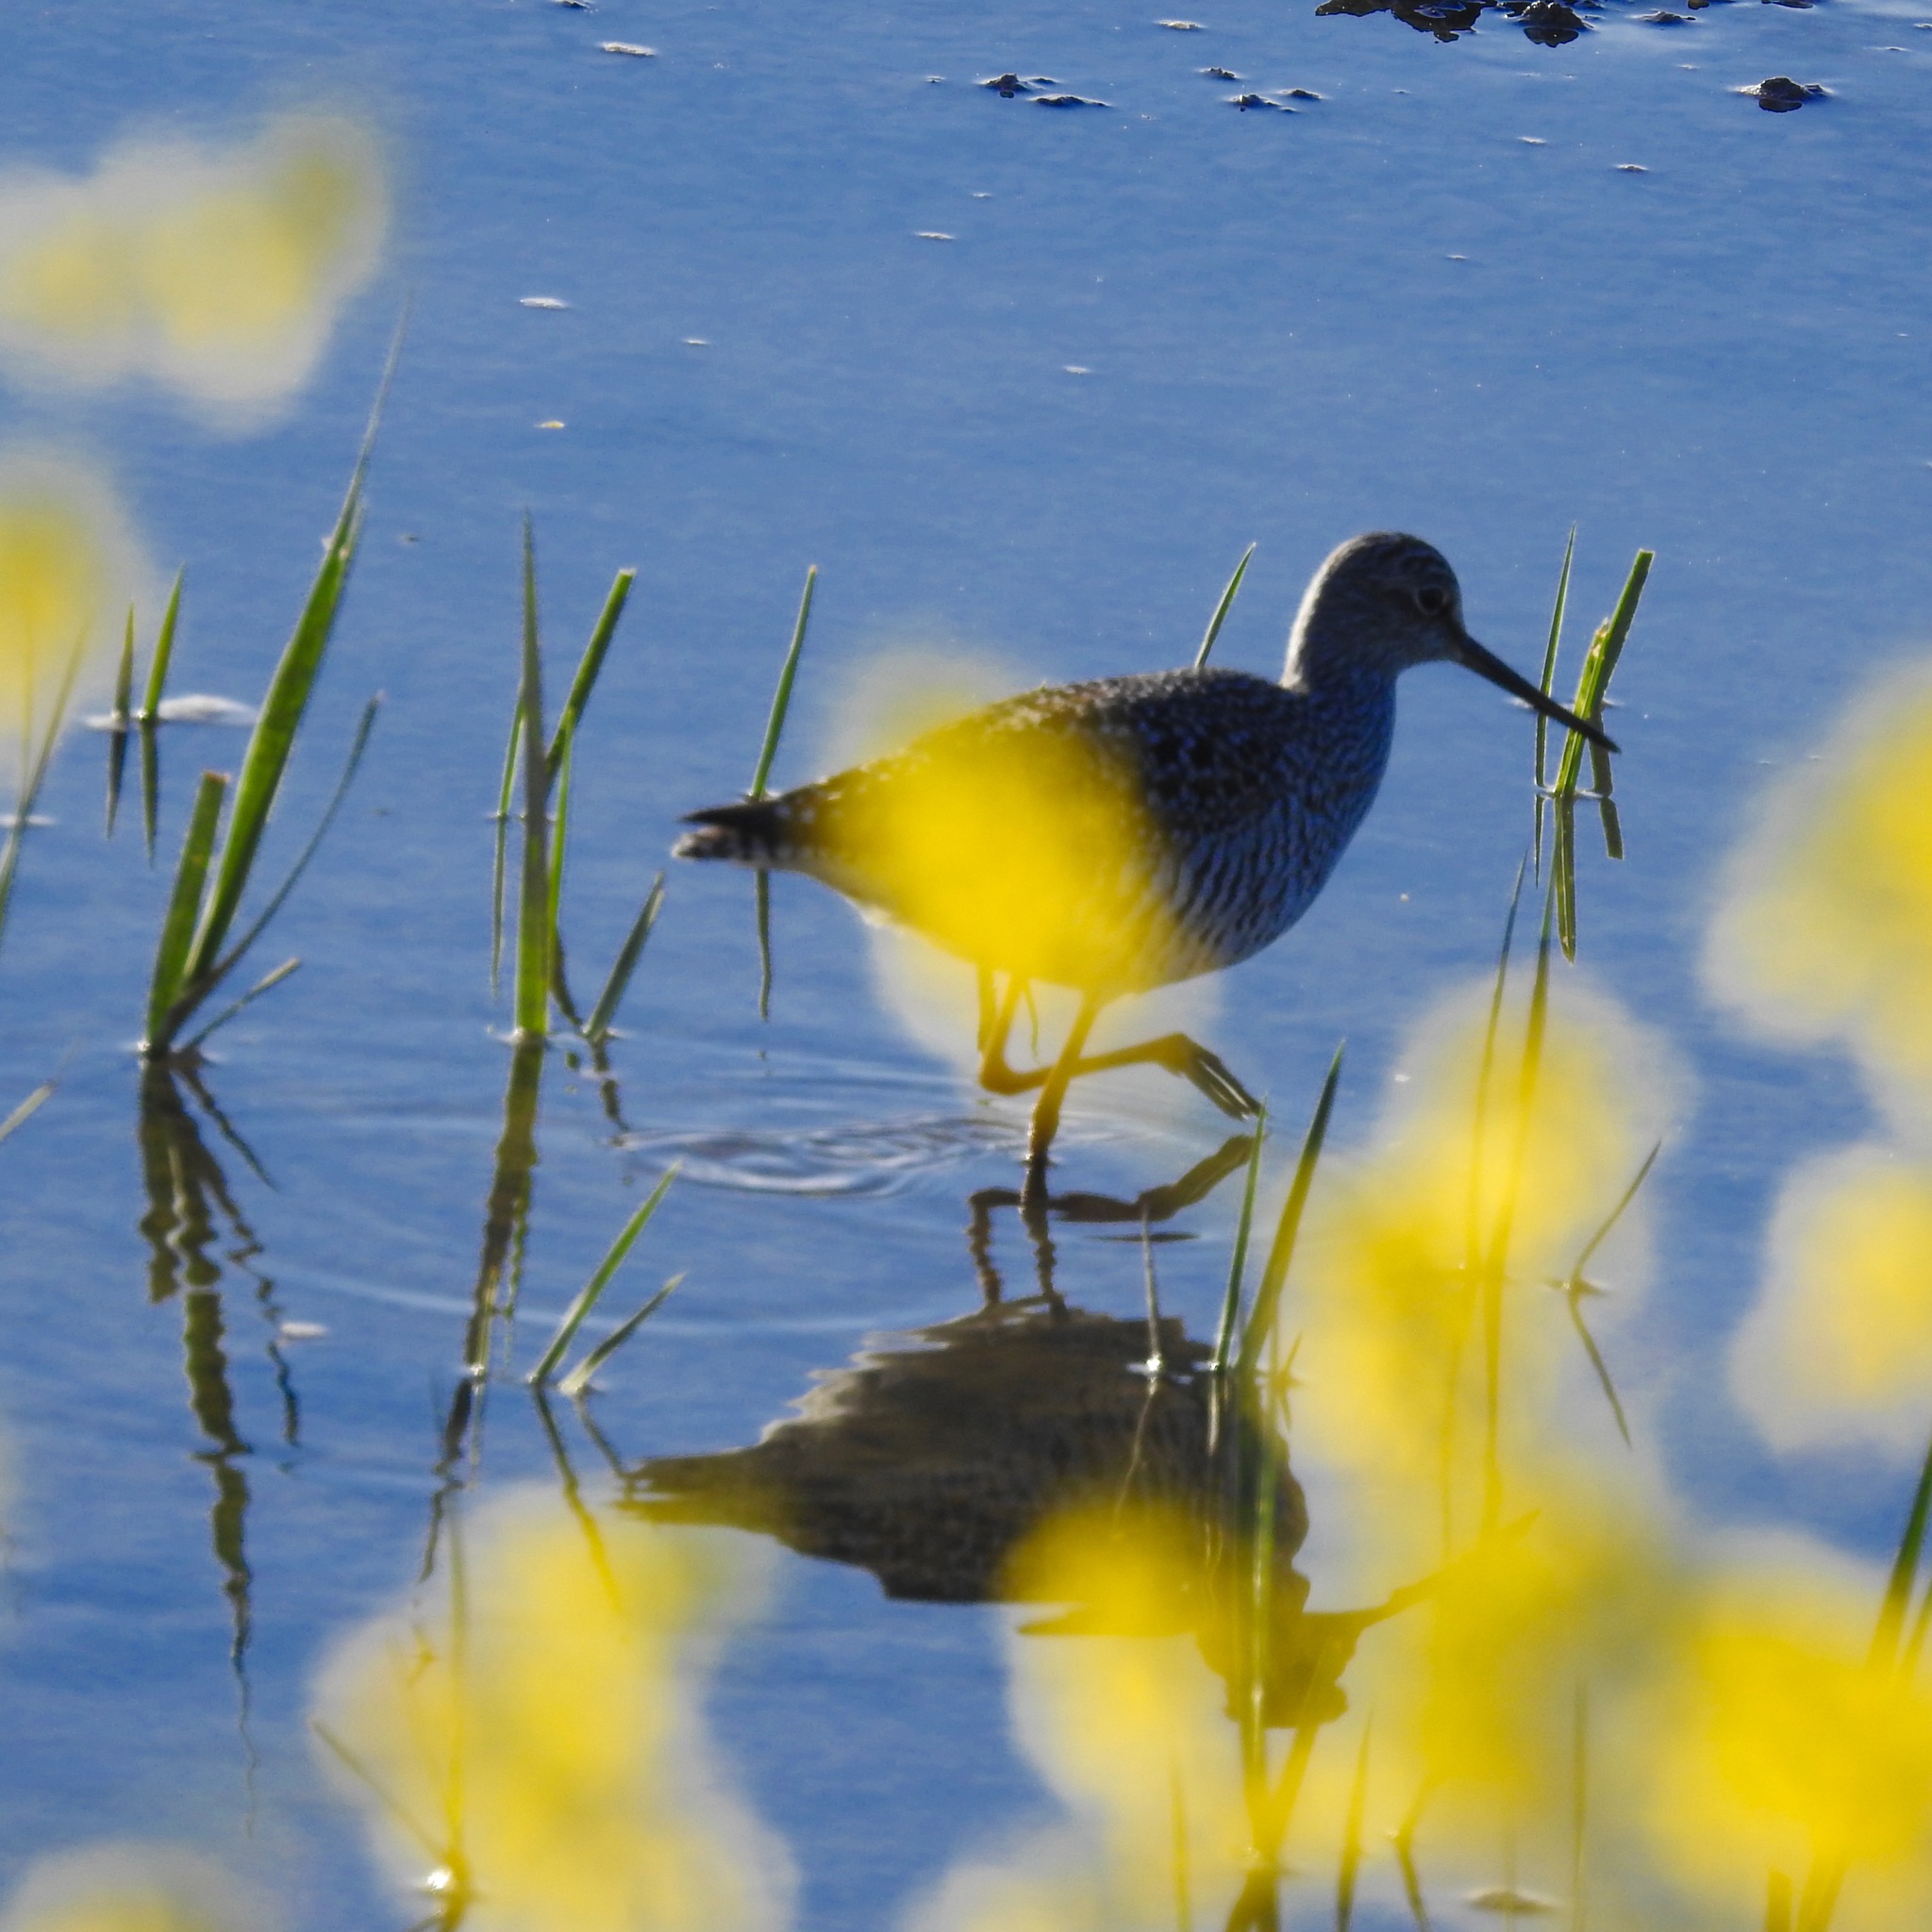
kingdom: Animalia
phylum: Chordata
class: Aves
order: Charadriiformes
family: Scolopacidae
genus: Tringa
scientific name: Tringa melanoleuca
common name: Greater yellowlegs
